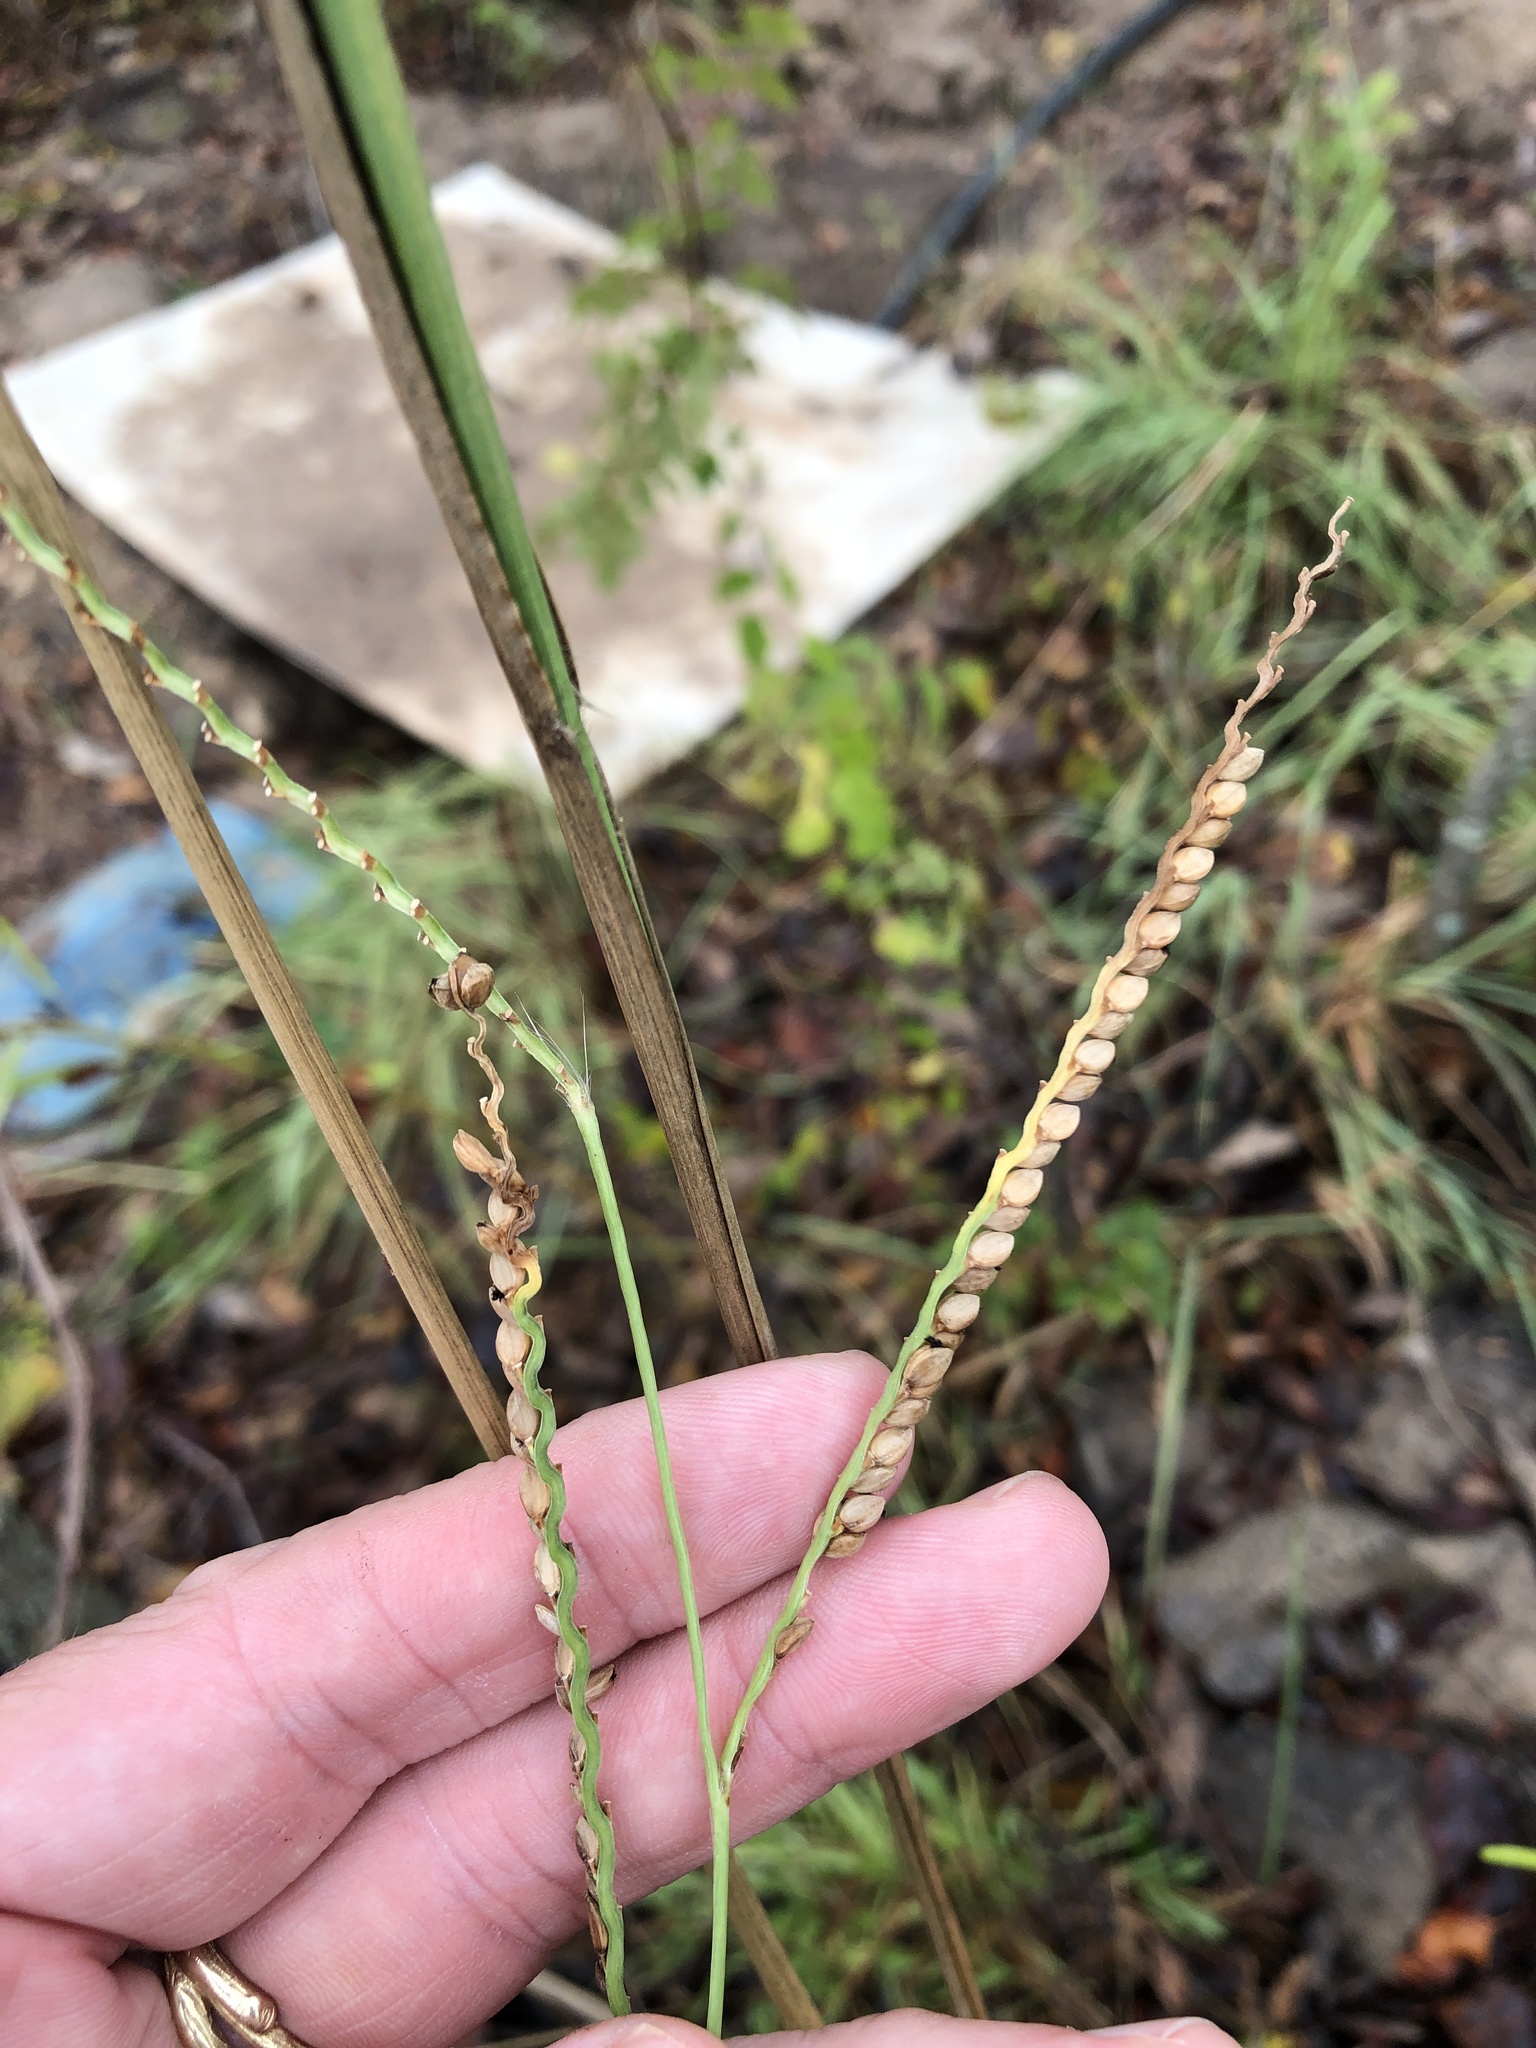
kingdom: Plantae
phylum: Tracheophyta
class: Liliopsida
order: Poales
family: Poaceae
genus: Paspalum
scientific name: Paspalum floridanum
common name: Florida paspalum
